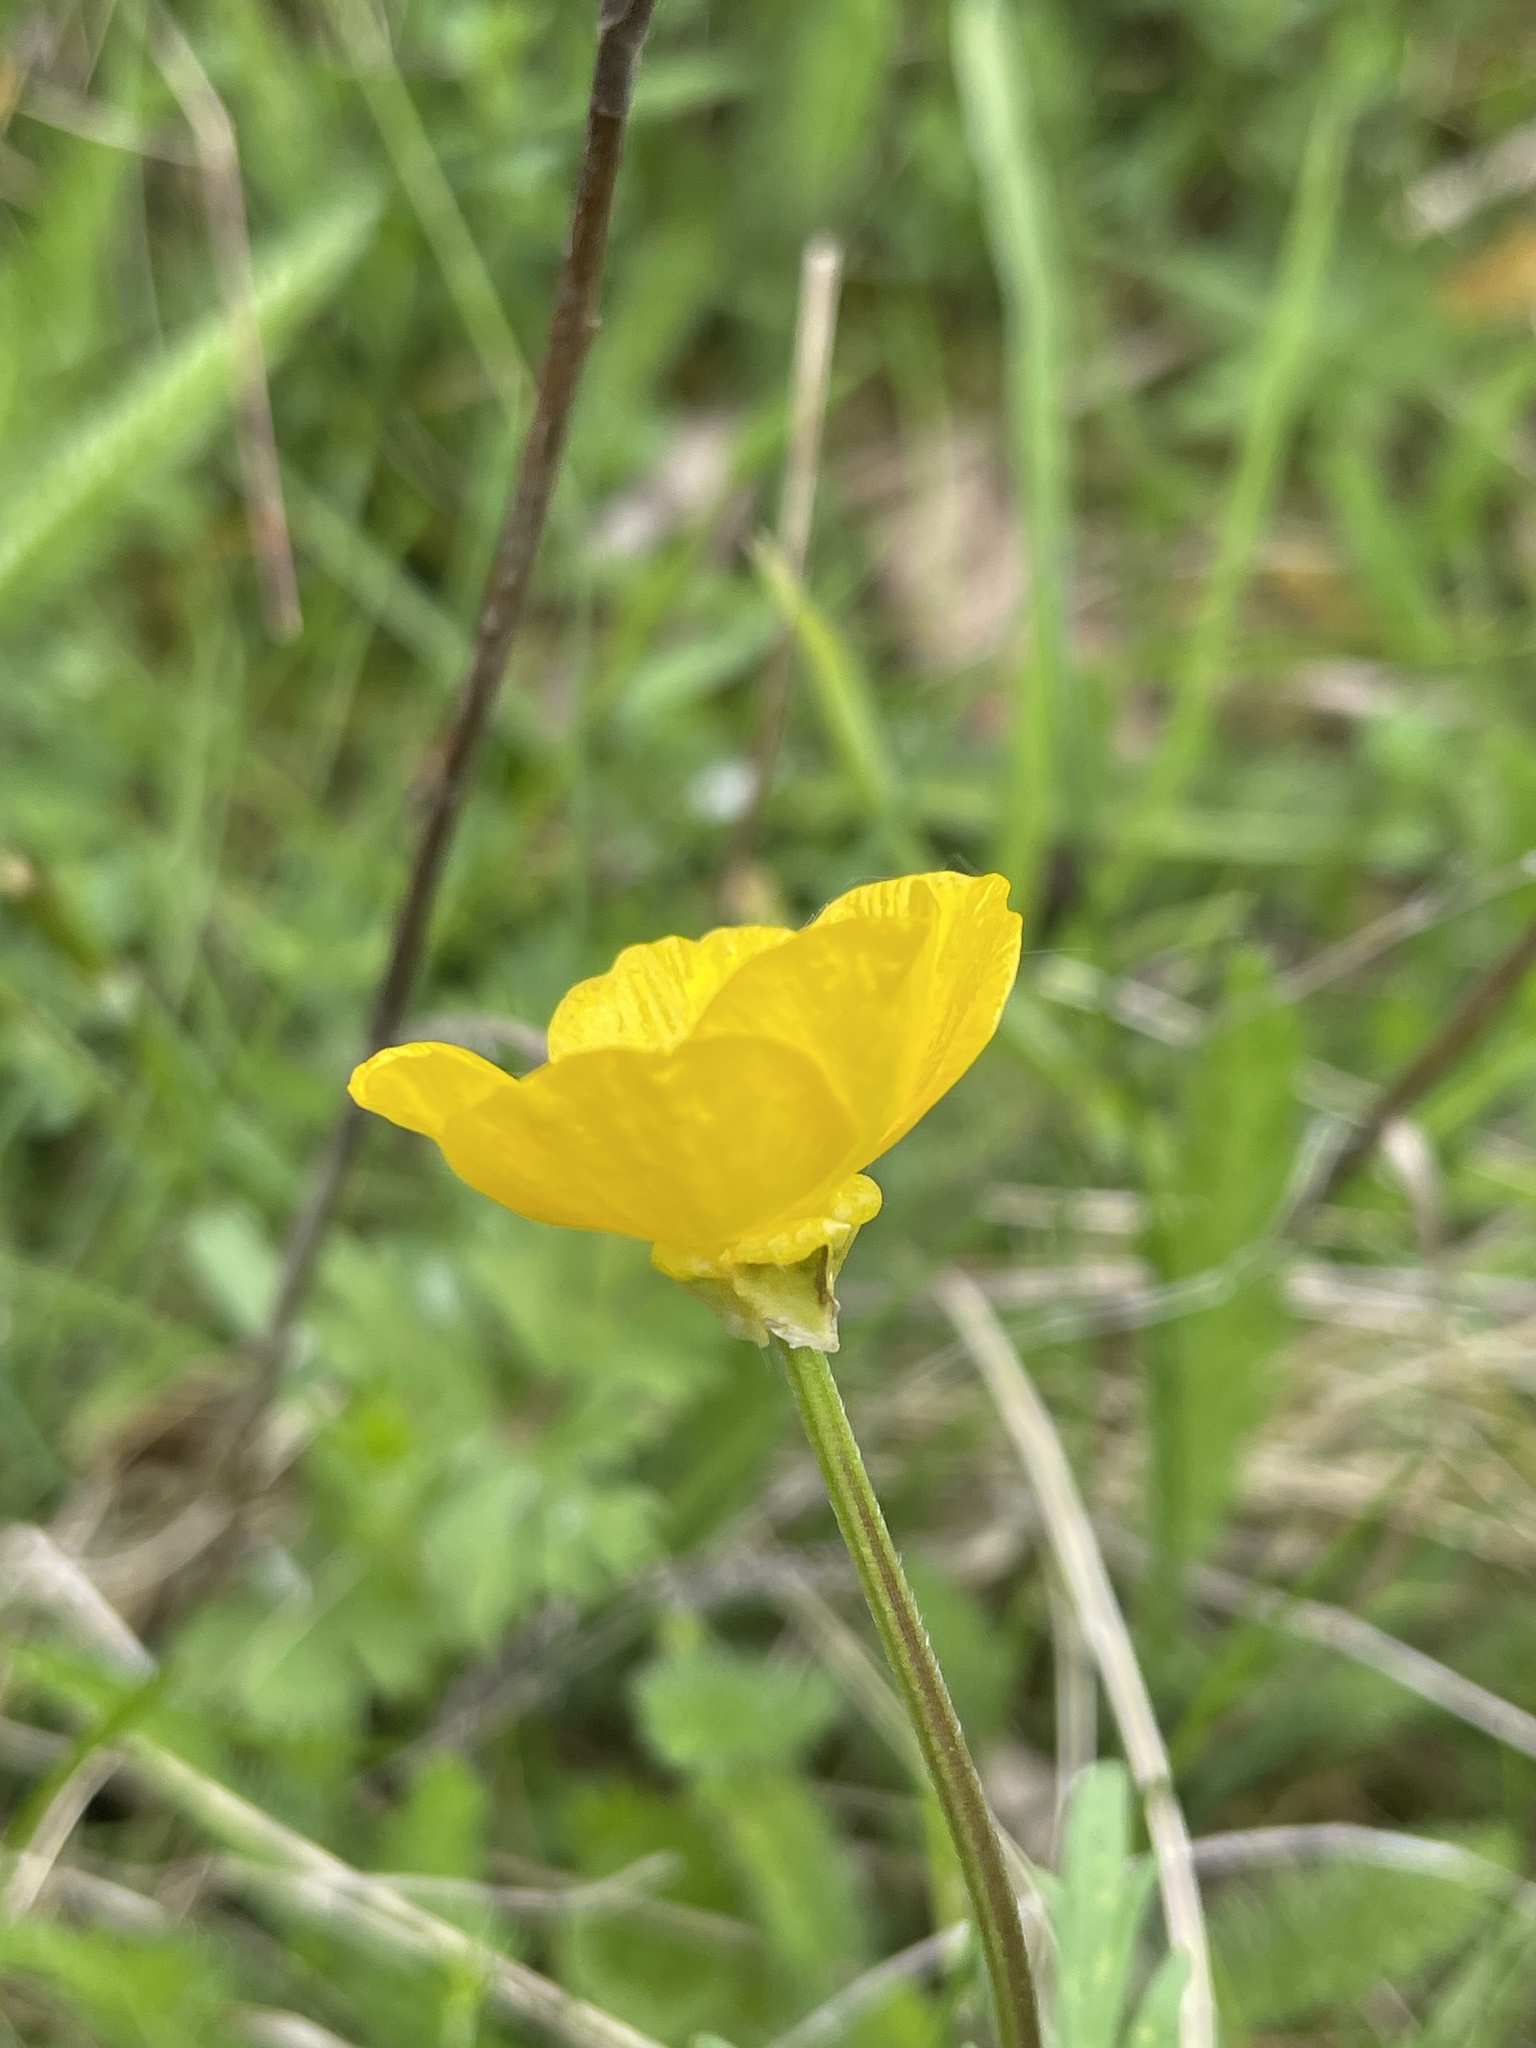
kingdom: Plantae
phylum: Tracheophyta
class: Magnoliopsida
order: Ranunculales
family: Ranunculaceae
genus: Ranunculus
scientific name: Ranunculus bulbosus
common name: Bulbous buttercup
